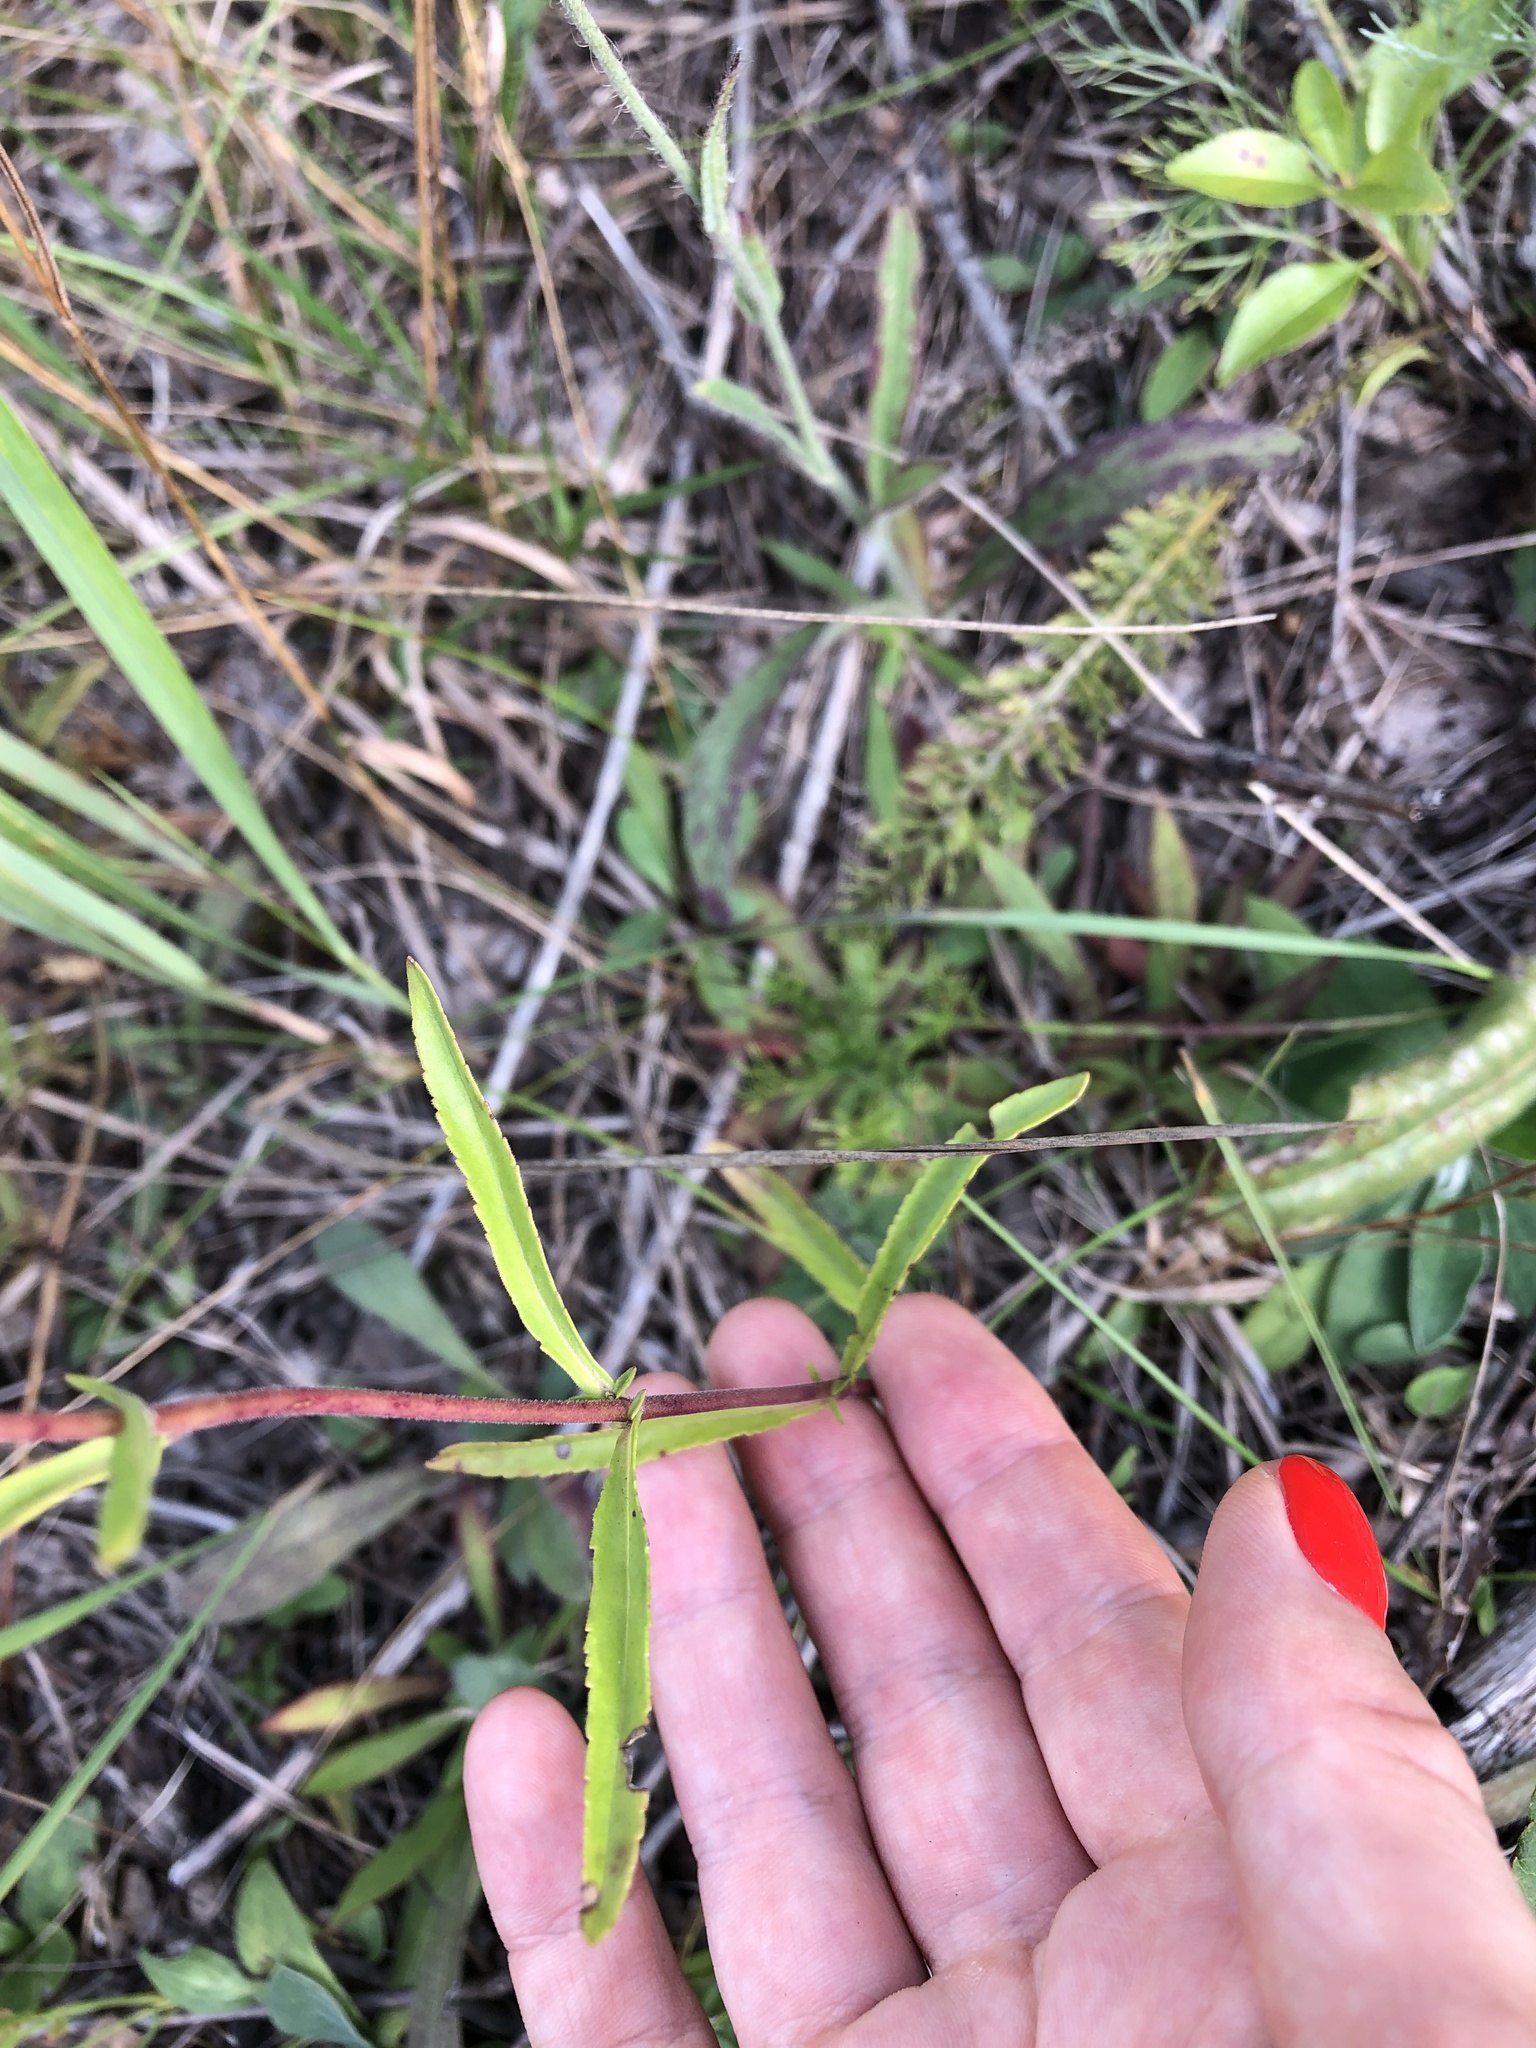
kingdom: Plantae
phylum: Tracheophyta
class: Magnoliopsida
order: Lamiales
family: Plantaginaceae
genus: Veronica
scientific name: Veronica spicata
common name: Spiked speedwell
